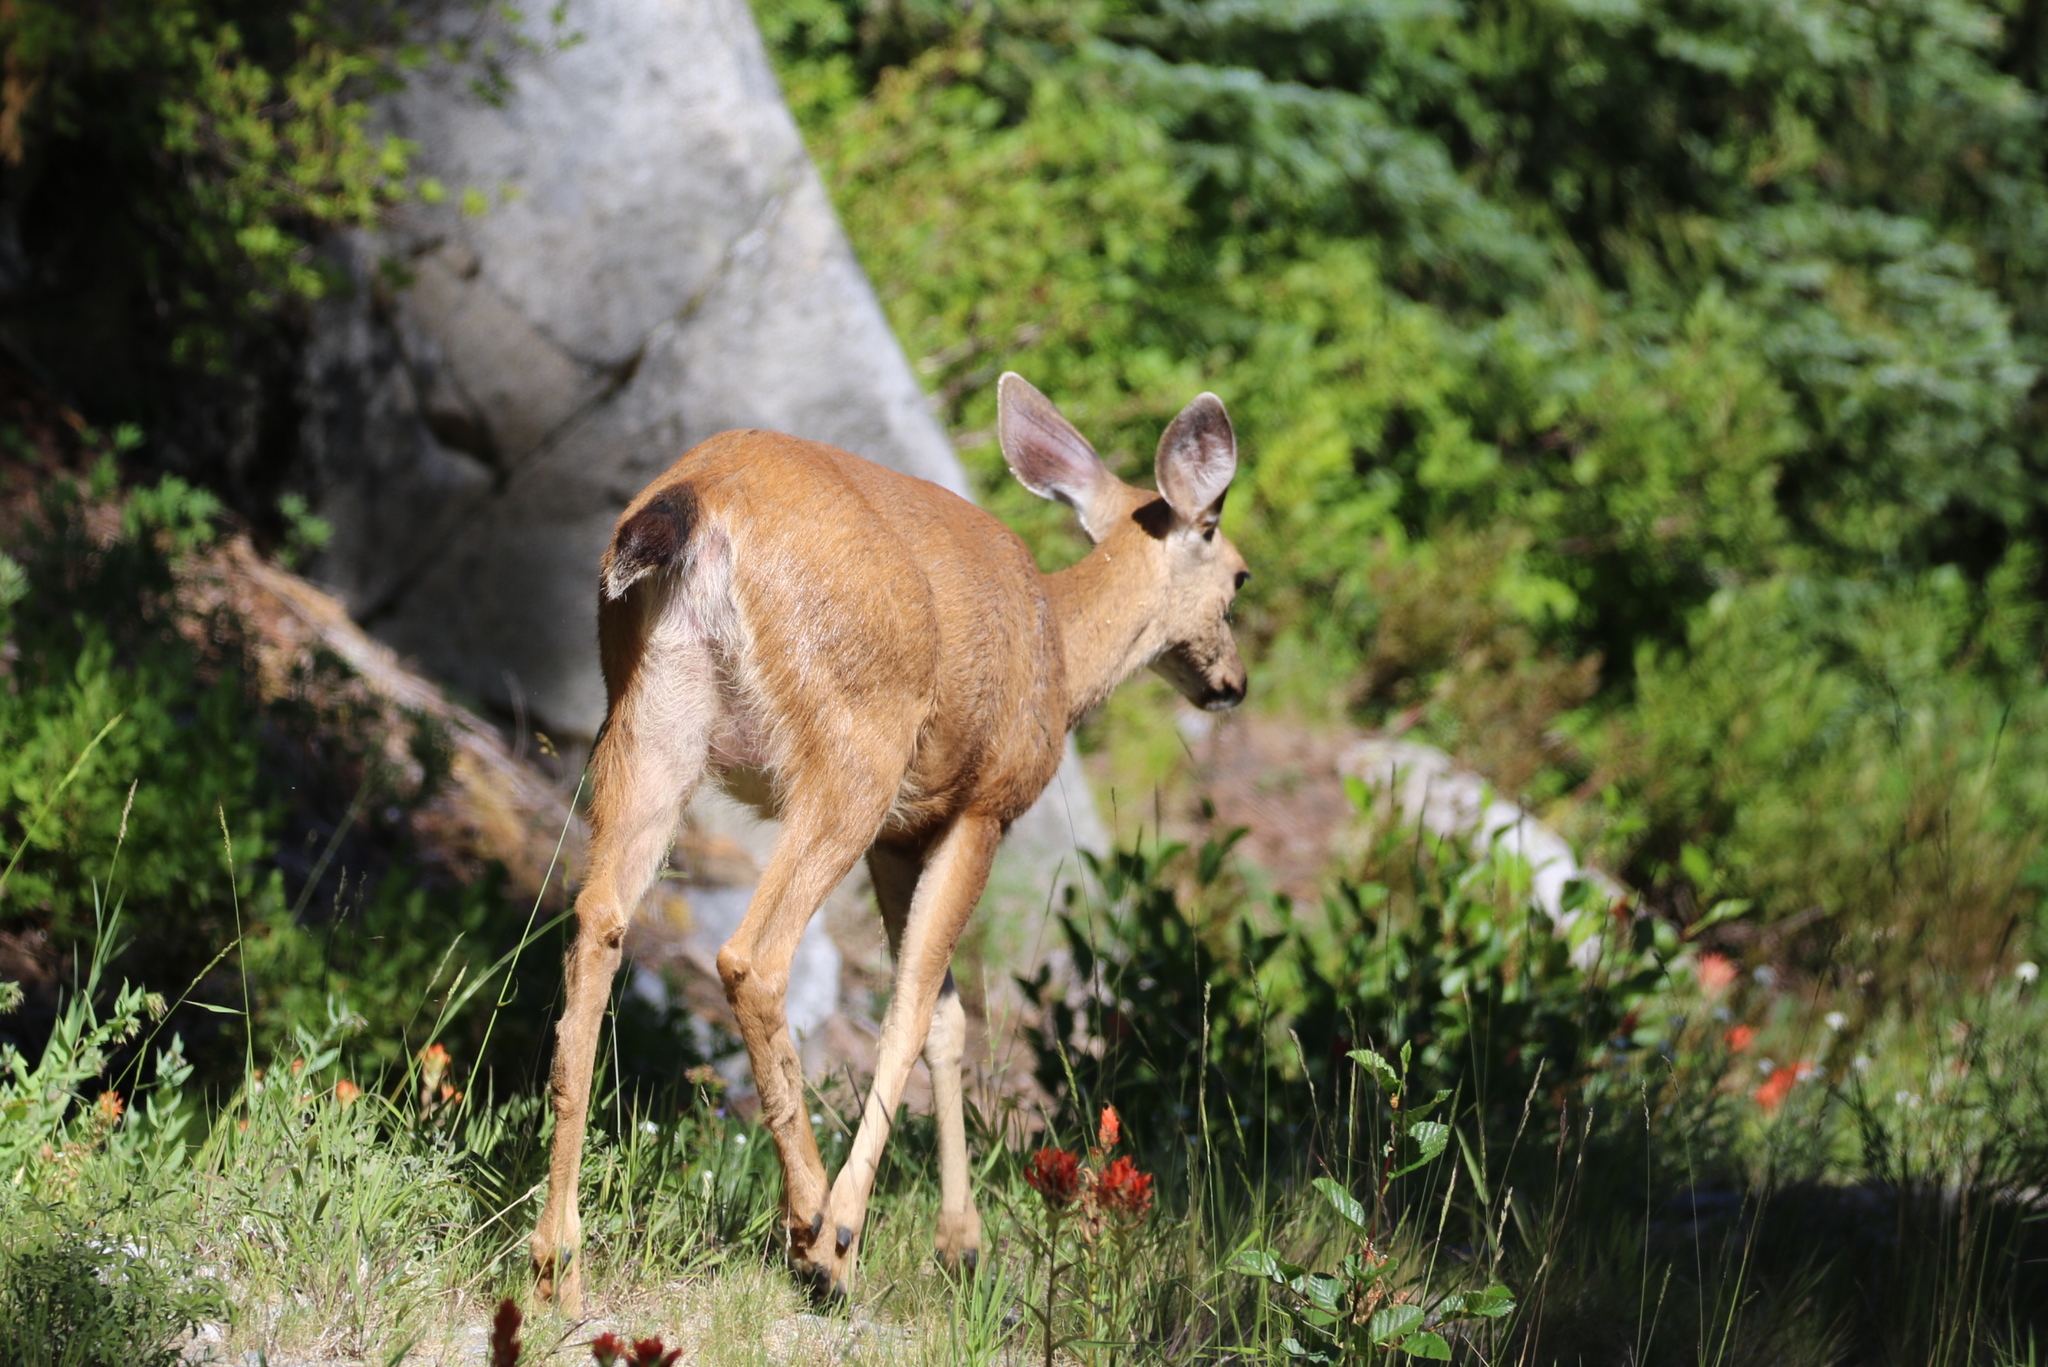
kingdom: Animalia
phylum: Chordata
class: Mammalia
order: Artiodactyla
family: Cervidae
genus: Odocoileus
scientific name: Odocoileus hemionus
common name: Mule deer
